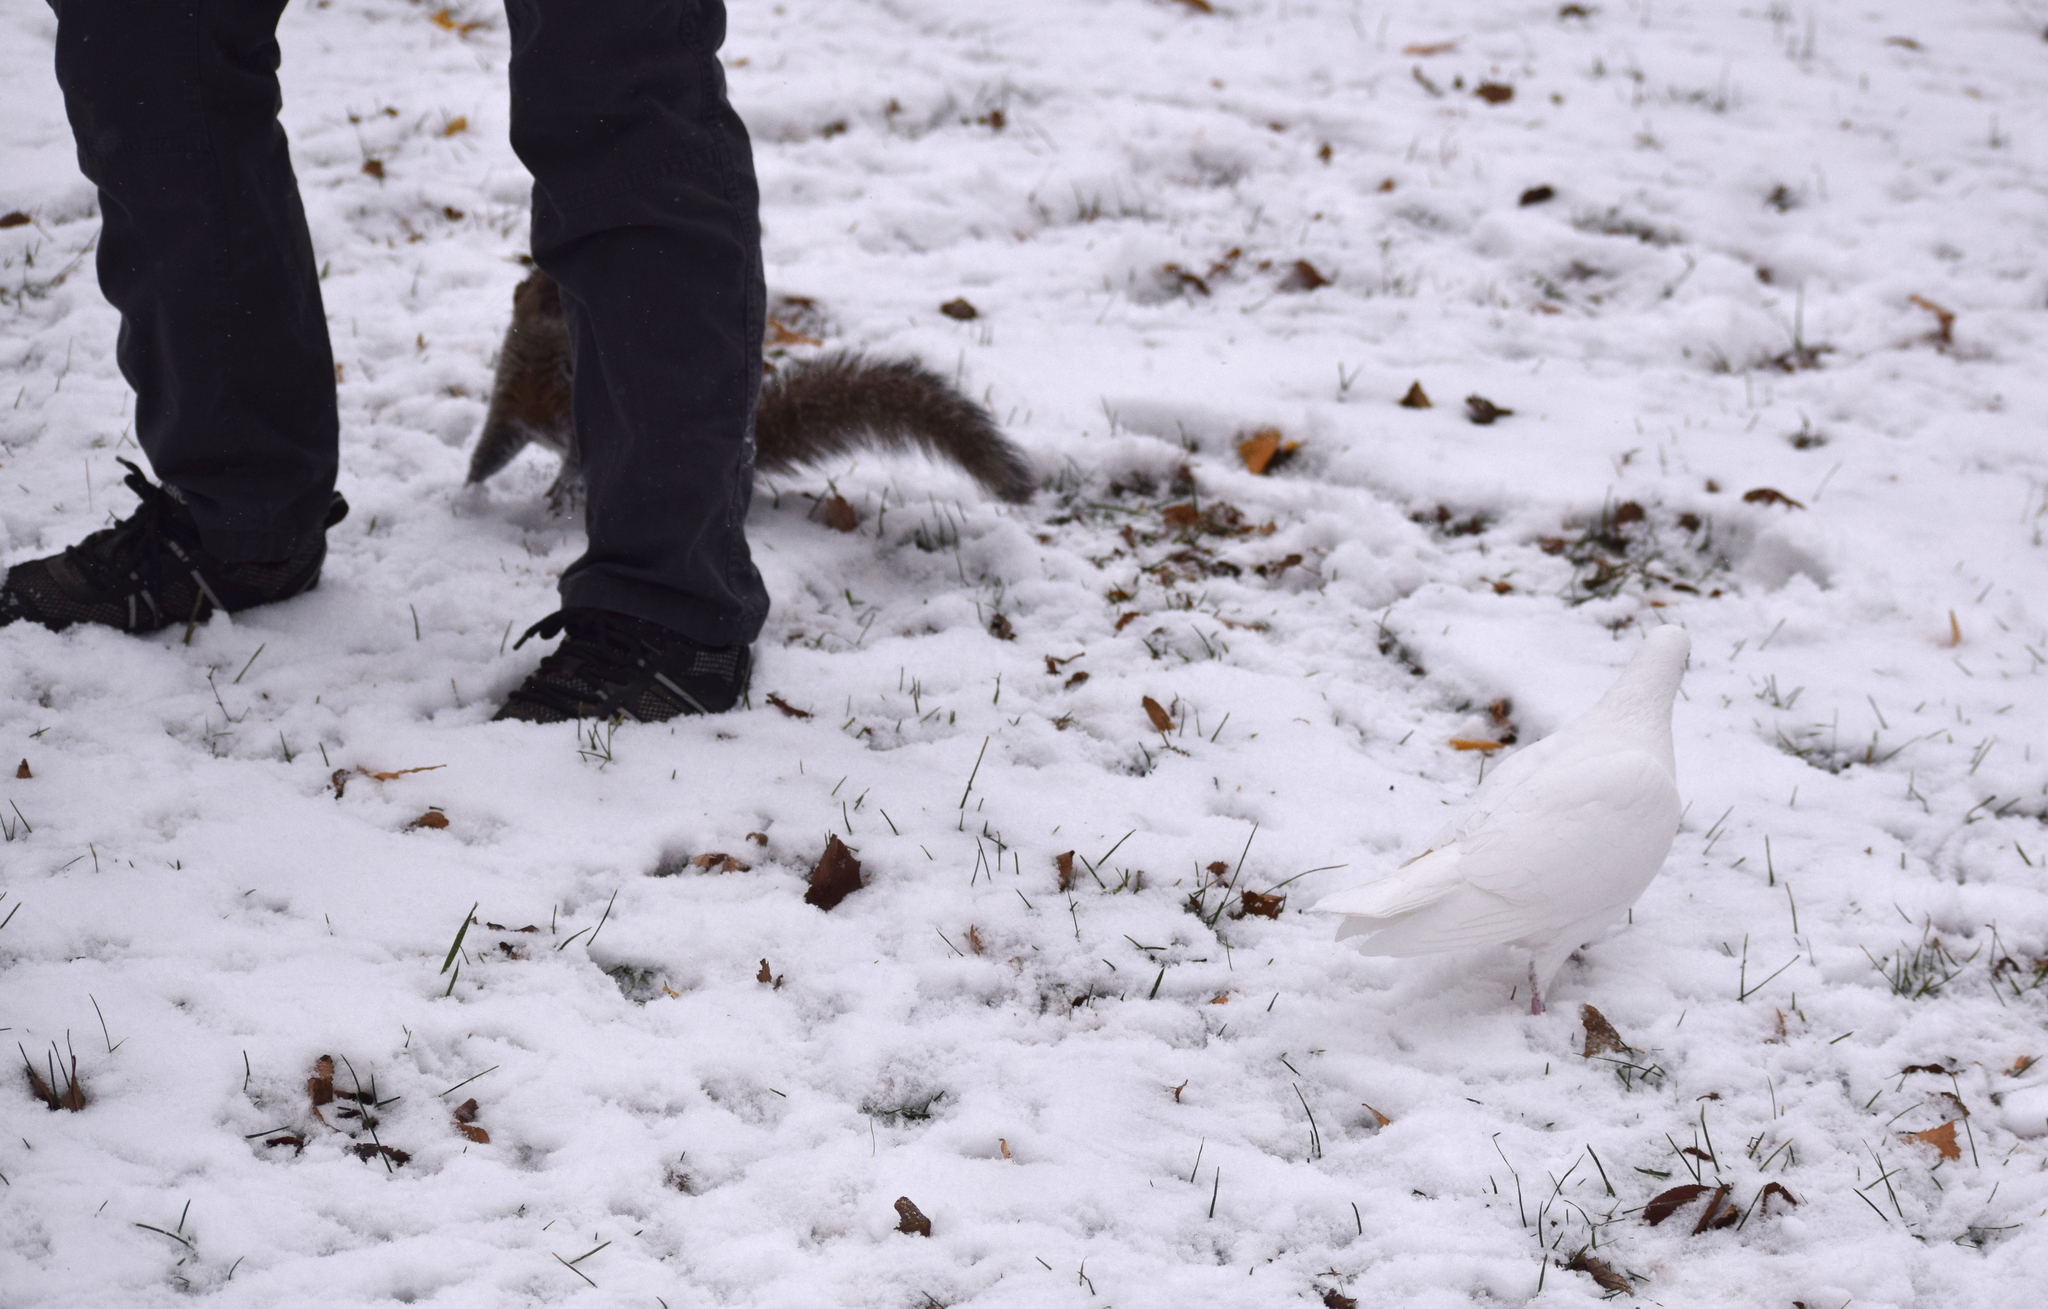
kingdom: Animalia
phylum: Chordata
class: Aves
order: Columbiformes
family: Columbidae
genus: Columba
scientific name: Columba livia
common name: Rock pigeon
